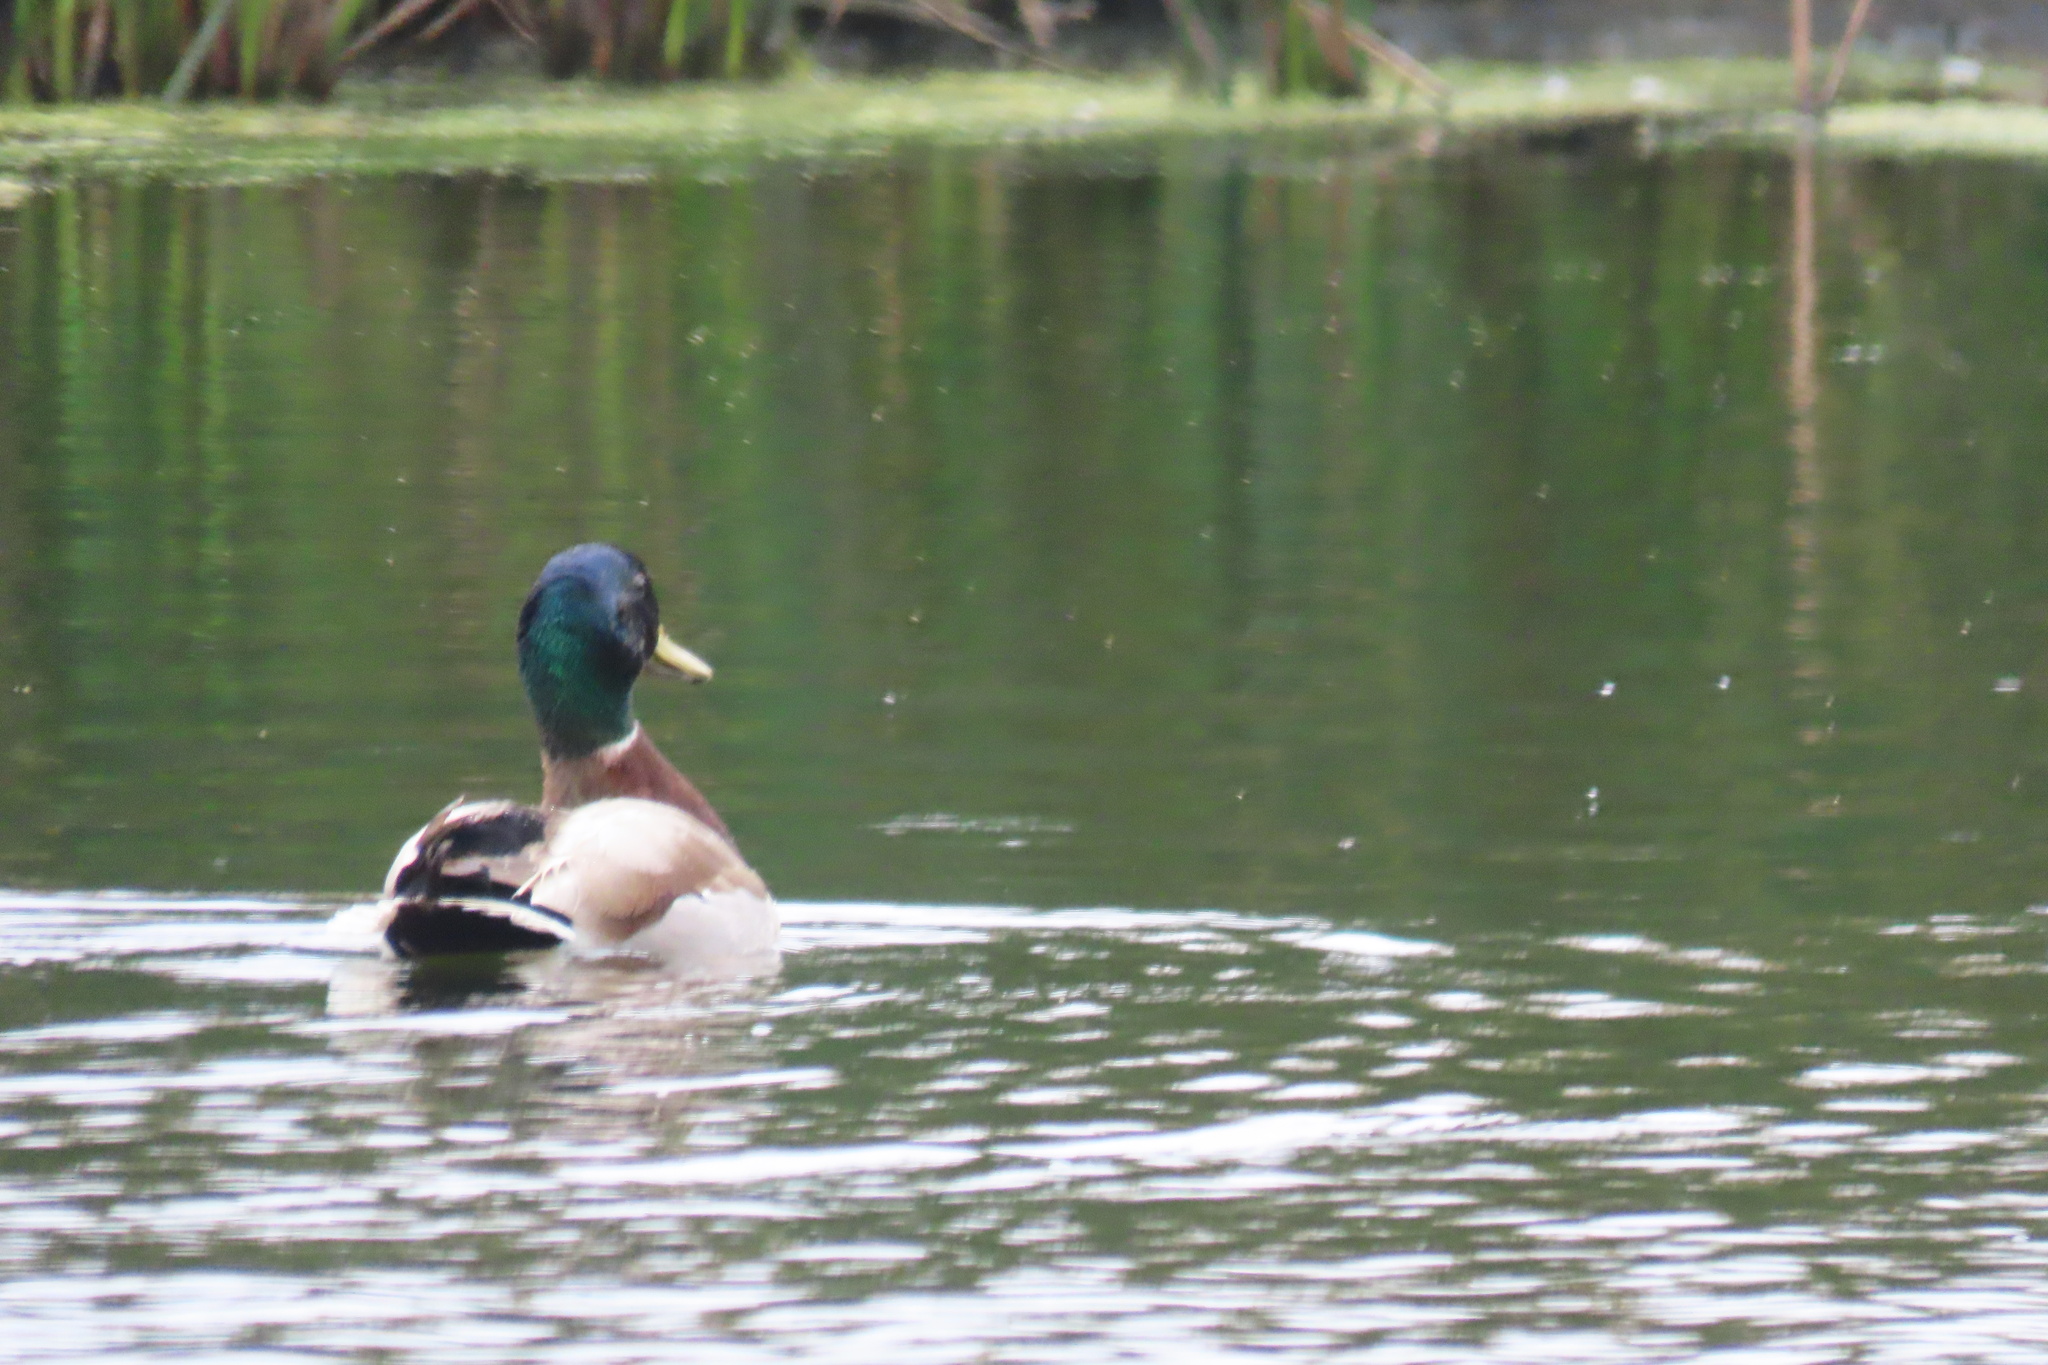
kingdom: Animalia
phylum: Chordata
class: Aves
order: Anseriformes
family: Anatidae
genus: Anas
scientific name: Anas platyrhynchos
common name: Mallard
